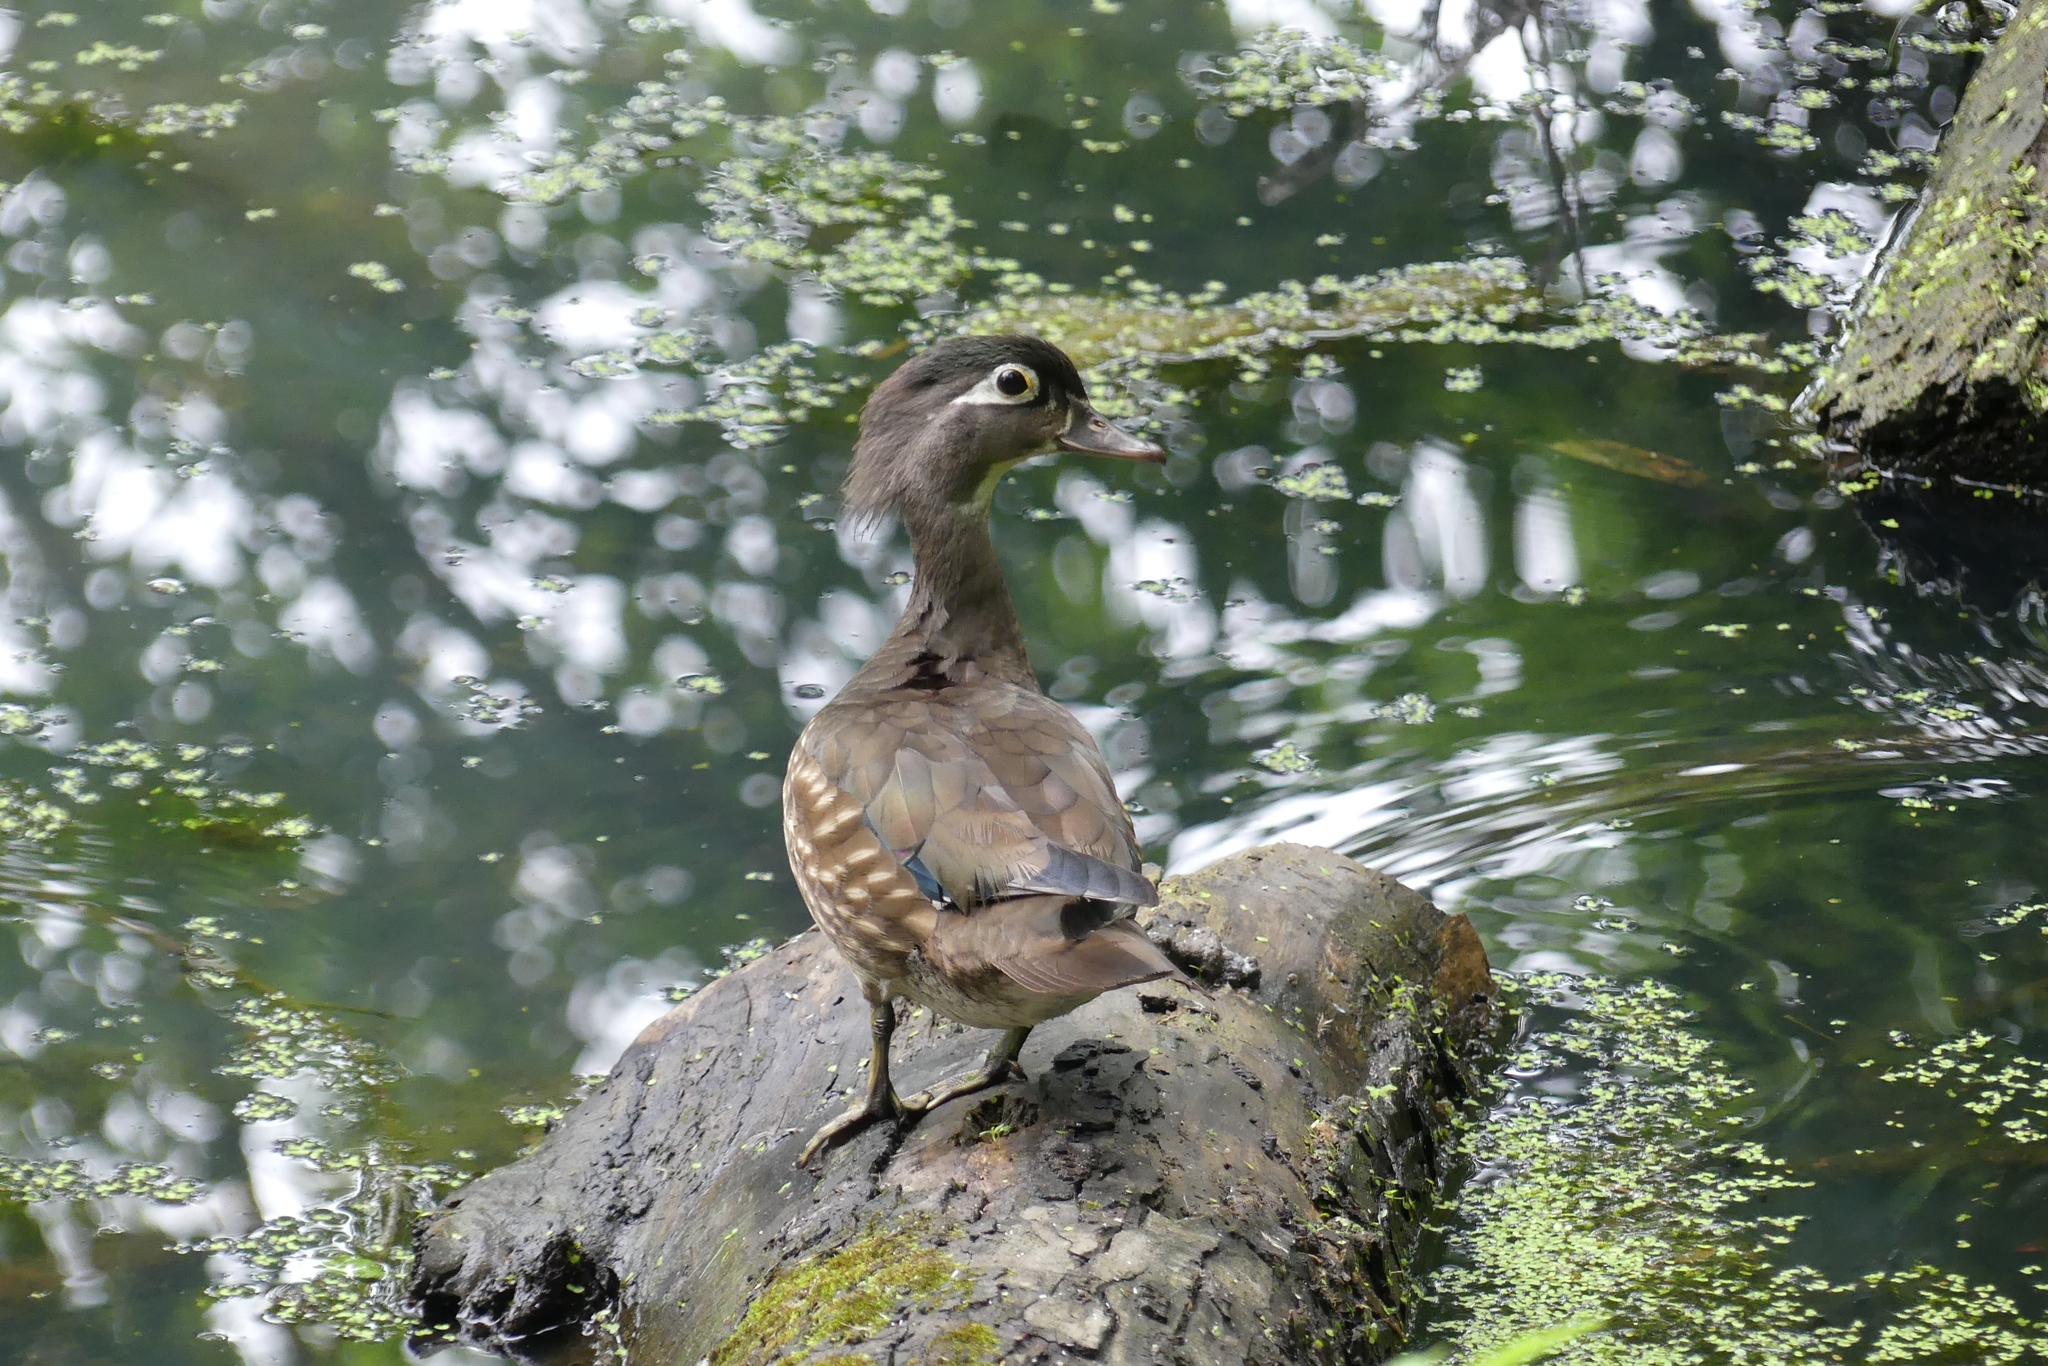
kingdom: Animalia
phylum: Chordata
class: Aves
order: Anseriformes
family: Anatidae
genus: Aix
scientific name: Aix sponsa
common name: Wood duck
